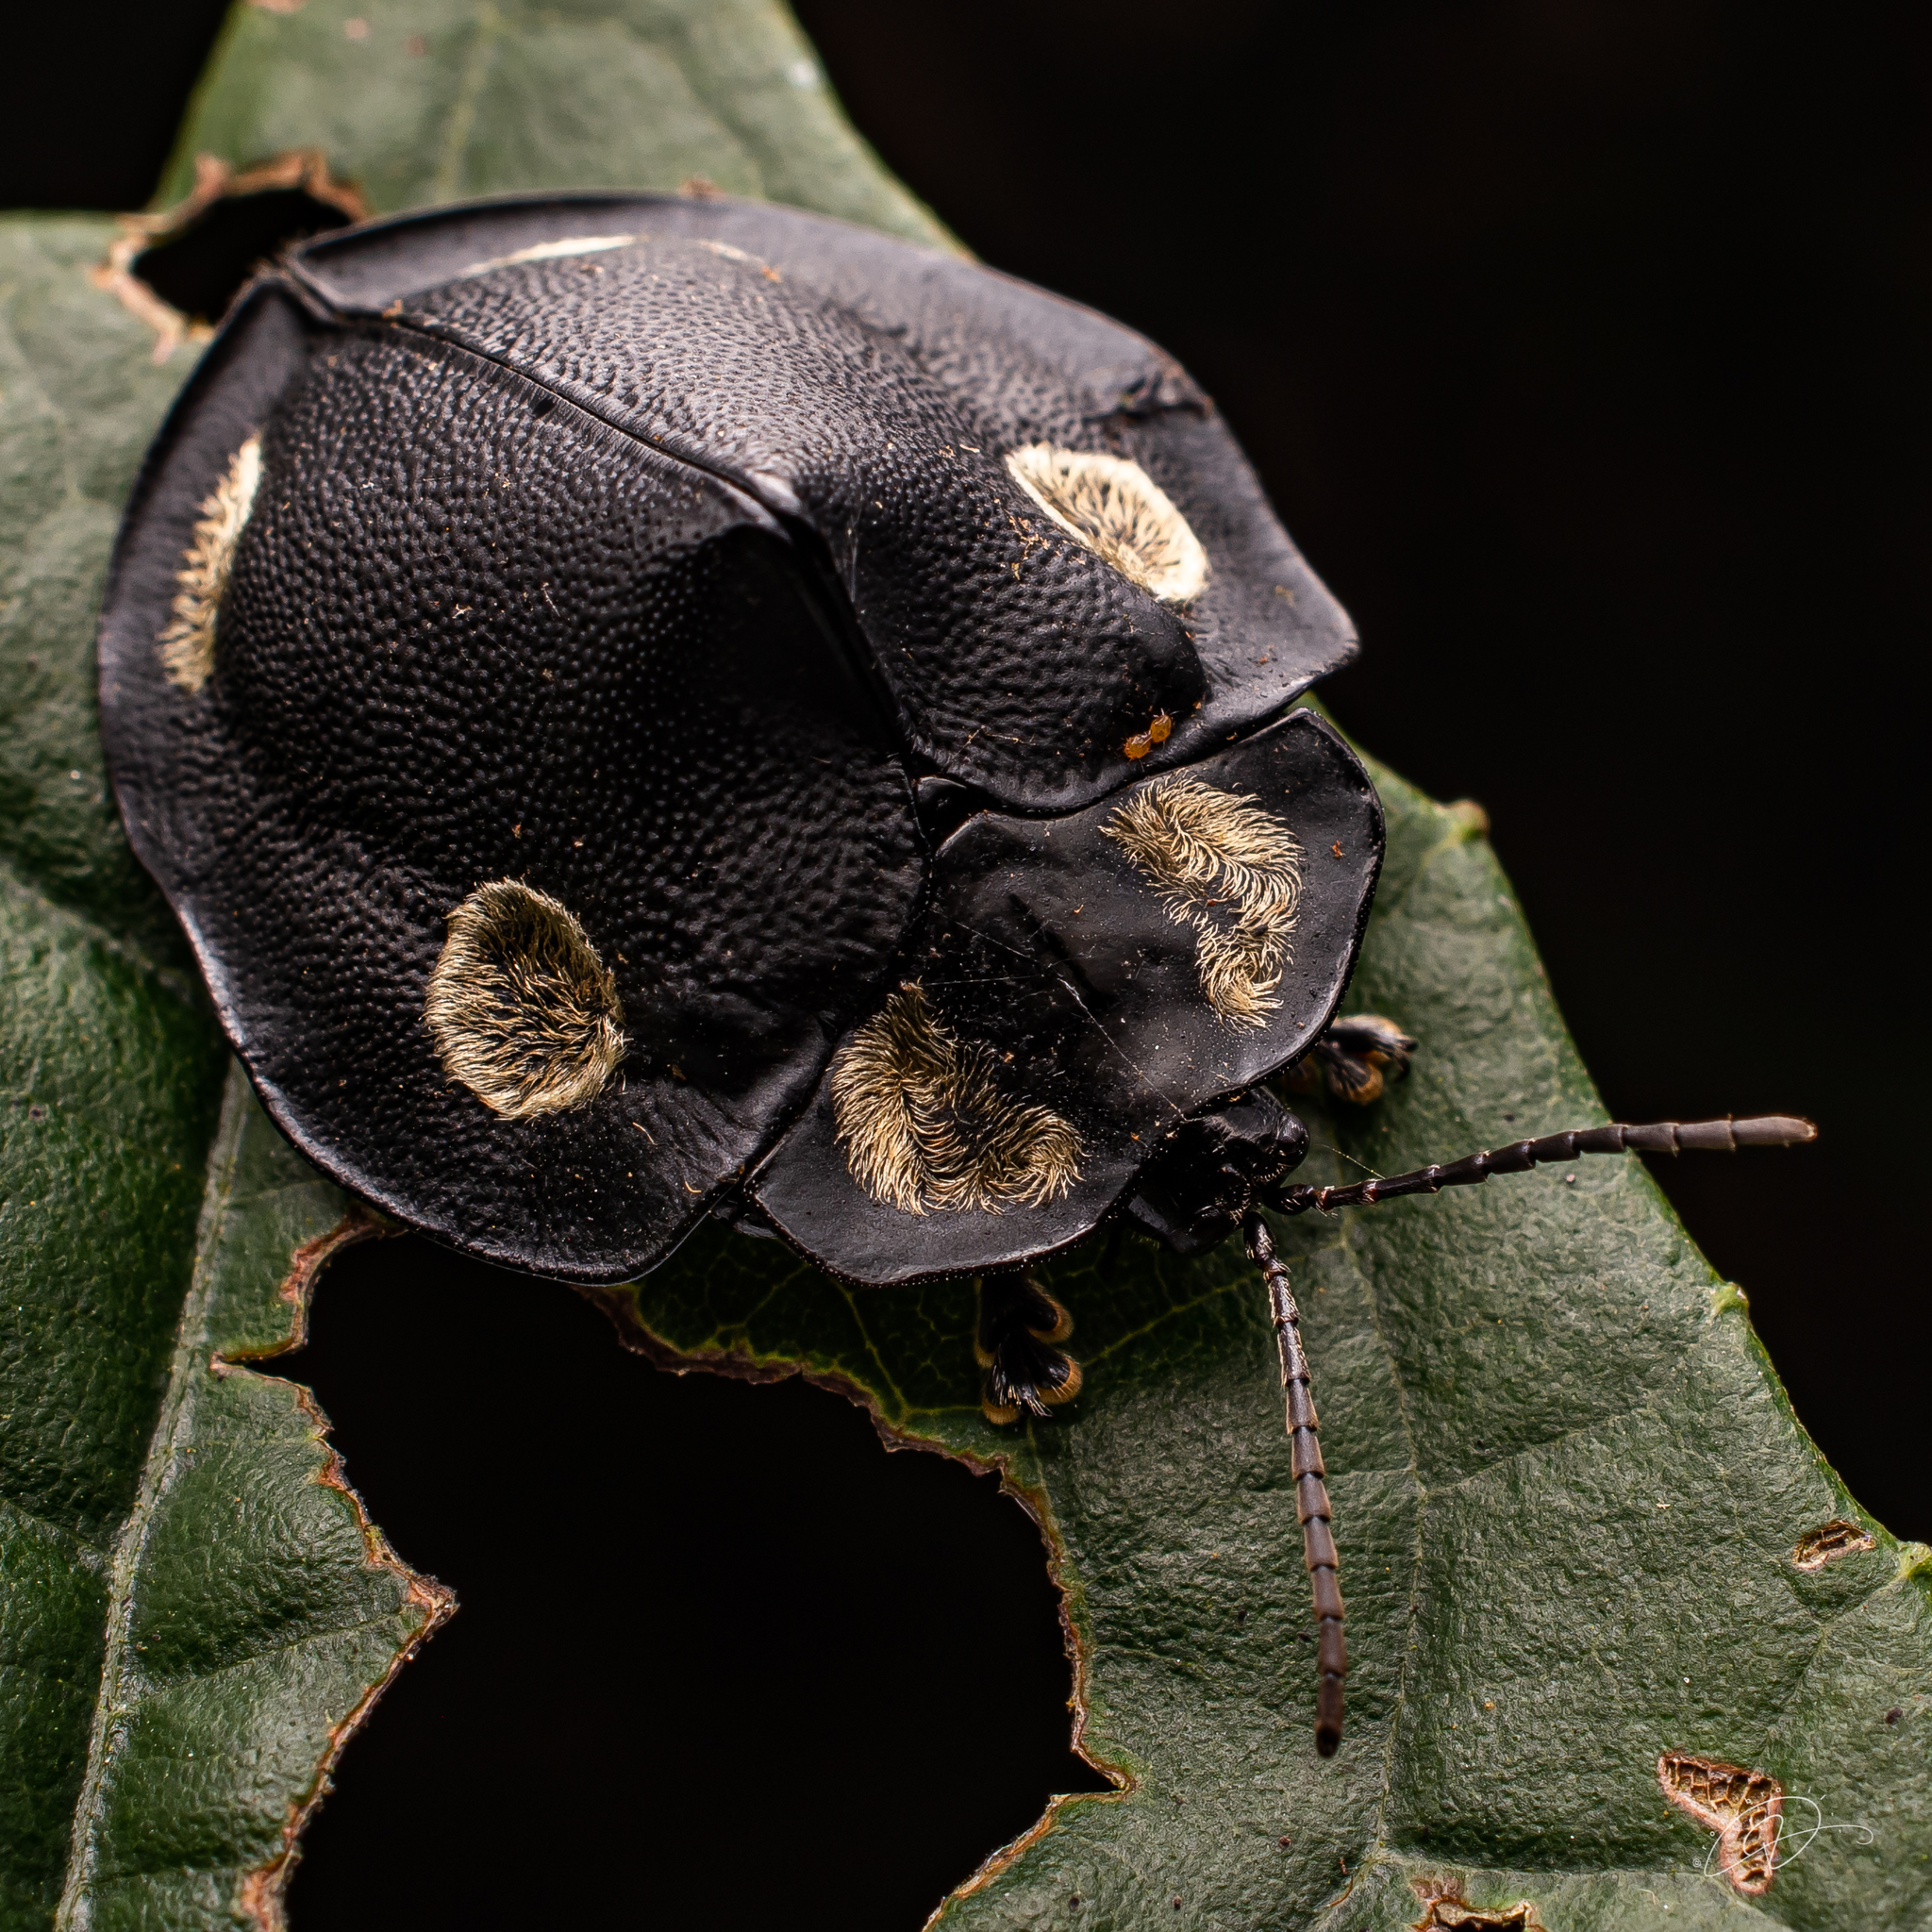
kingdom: Animalia
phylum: Arthropoda
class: Insecta
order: Coleoptera
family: Chrysomelidae
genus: Mesomphalia
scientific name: Mesomphalia turrita
